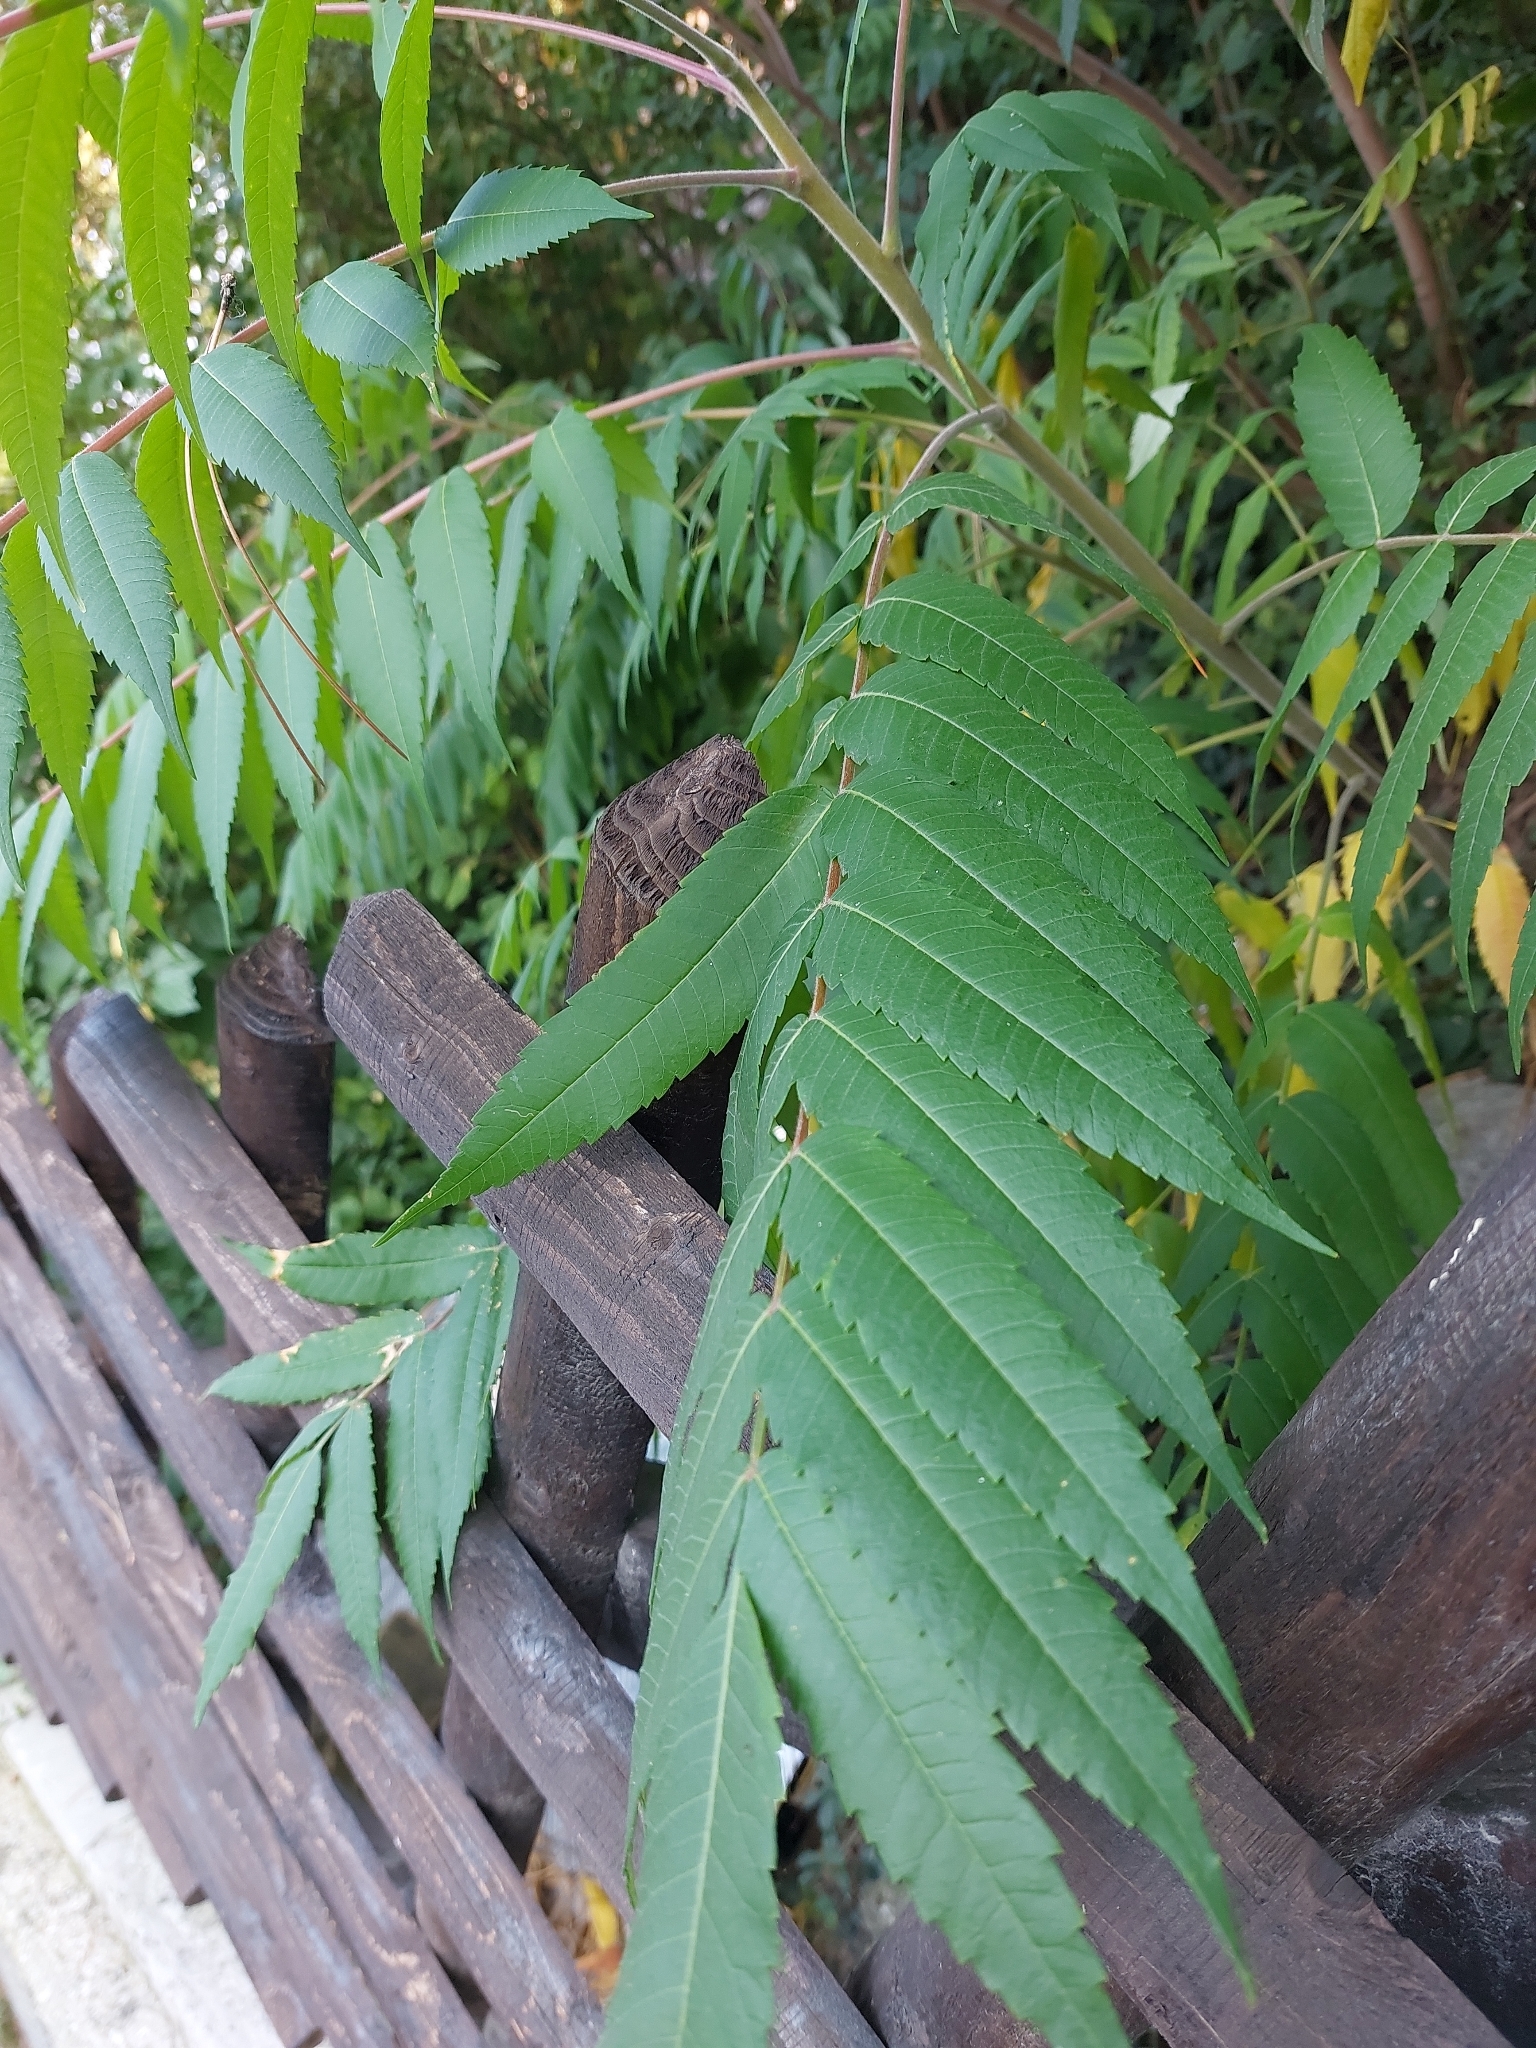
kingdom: Plantae
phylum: Tracheophyta
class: Magnoliopsida
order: Sapindales
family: Anacardiaceae
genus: Rhus
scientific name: Rhus typhina
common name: Staghorn sumac
